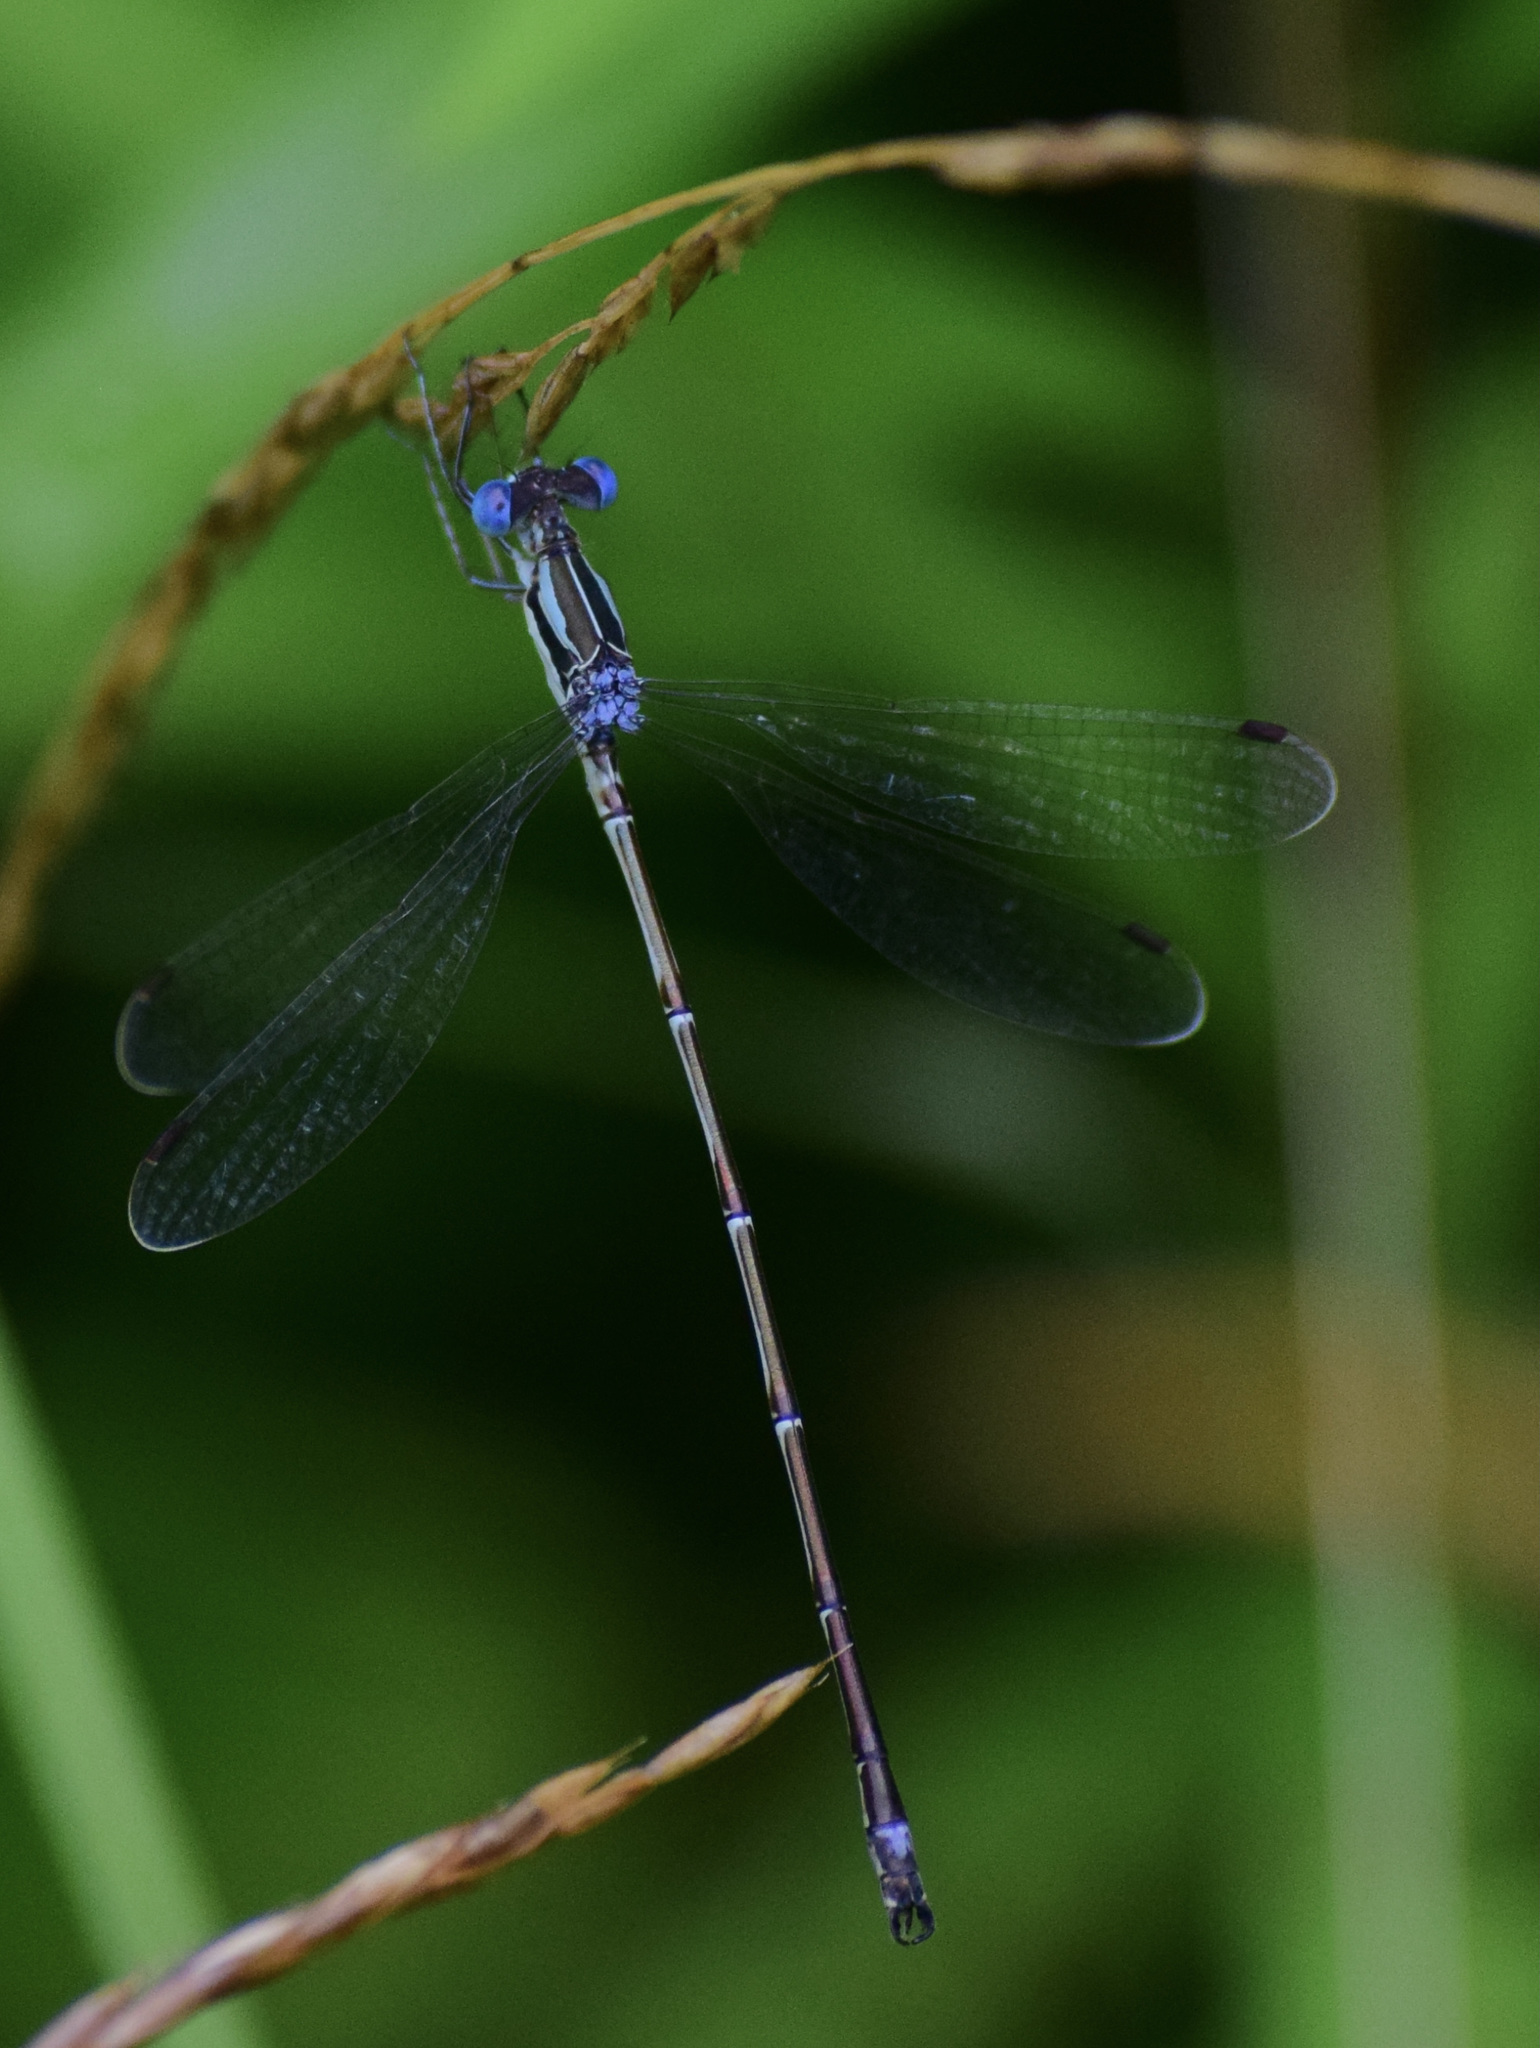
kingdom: Animalia
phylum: Arthropoda
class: Insecta
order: Odonata
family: Lestidae
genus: Lestes
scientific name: Lestes rectangularis
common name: Slender spreadwing
